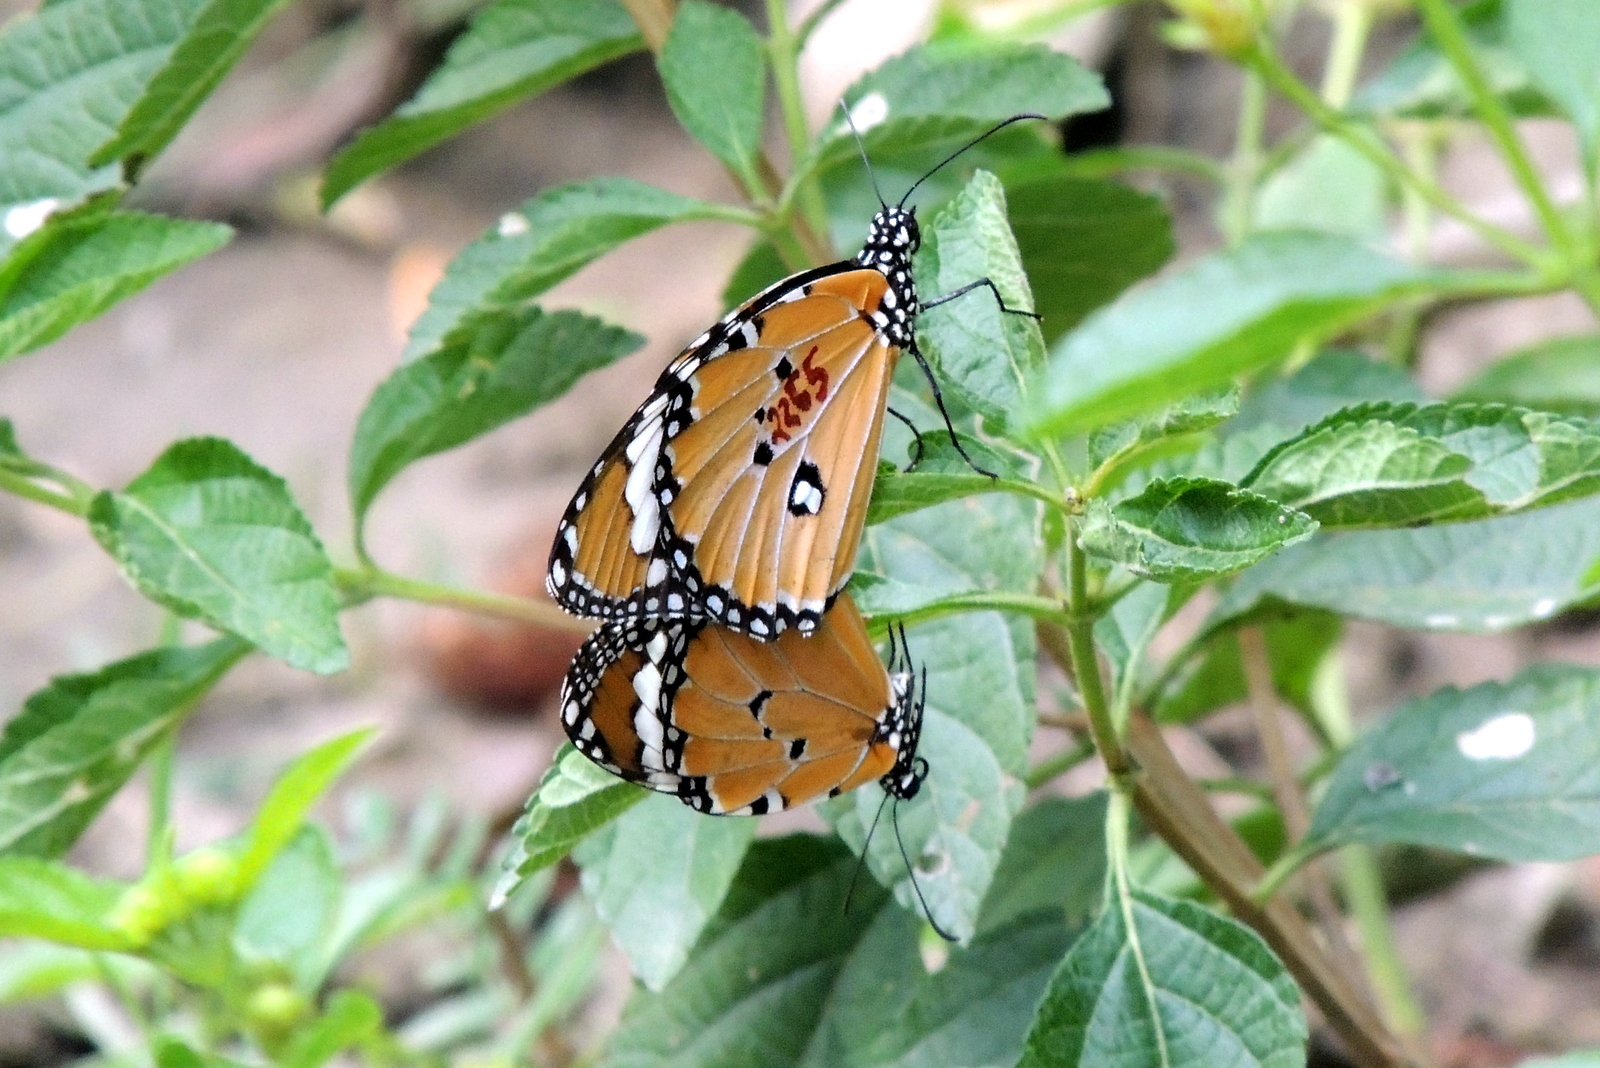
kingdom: Animalia
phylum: Arthropoda
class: Insecta
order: Lepidoptera
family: Nymphalidae
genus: Danaus
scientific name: Danaus chrysippus
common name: Plain tiger
